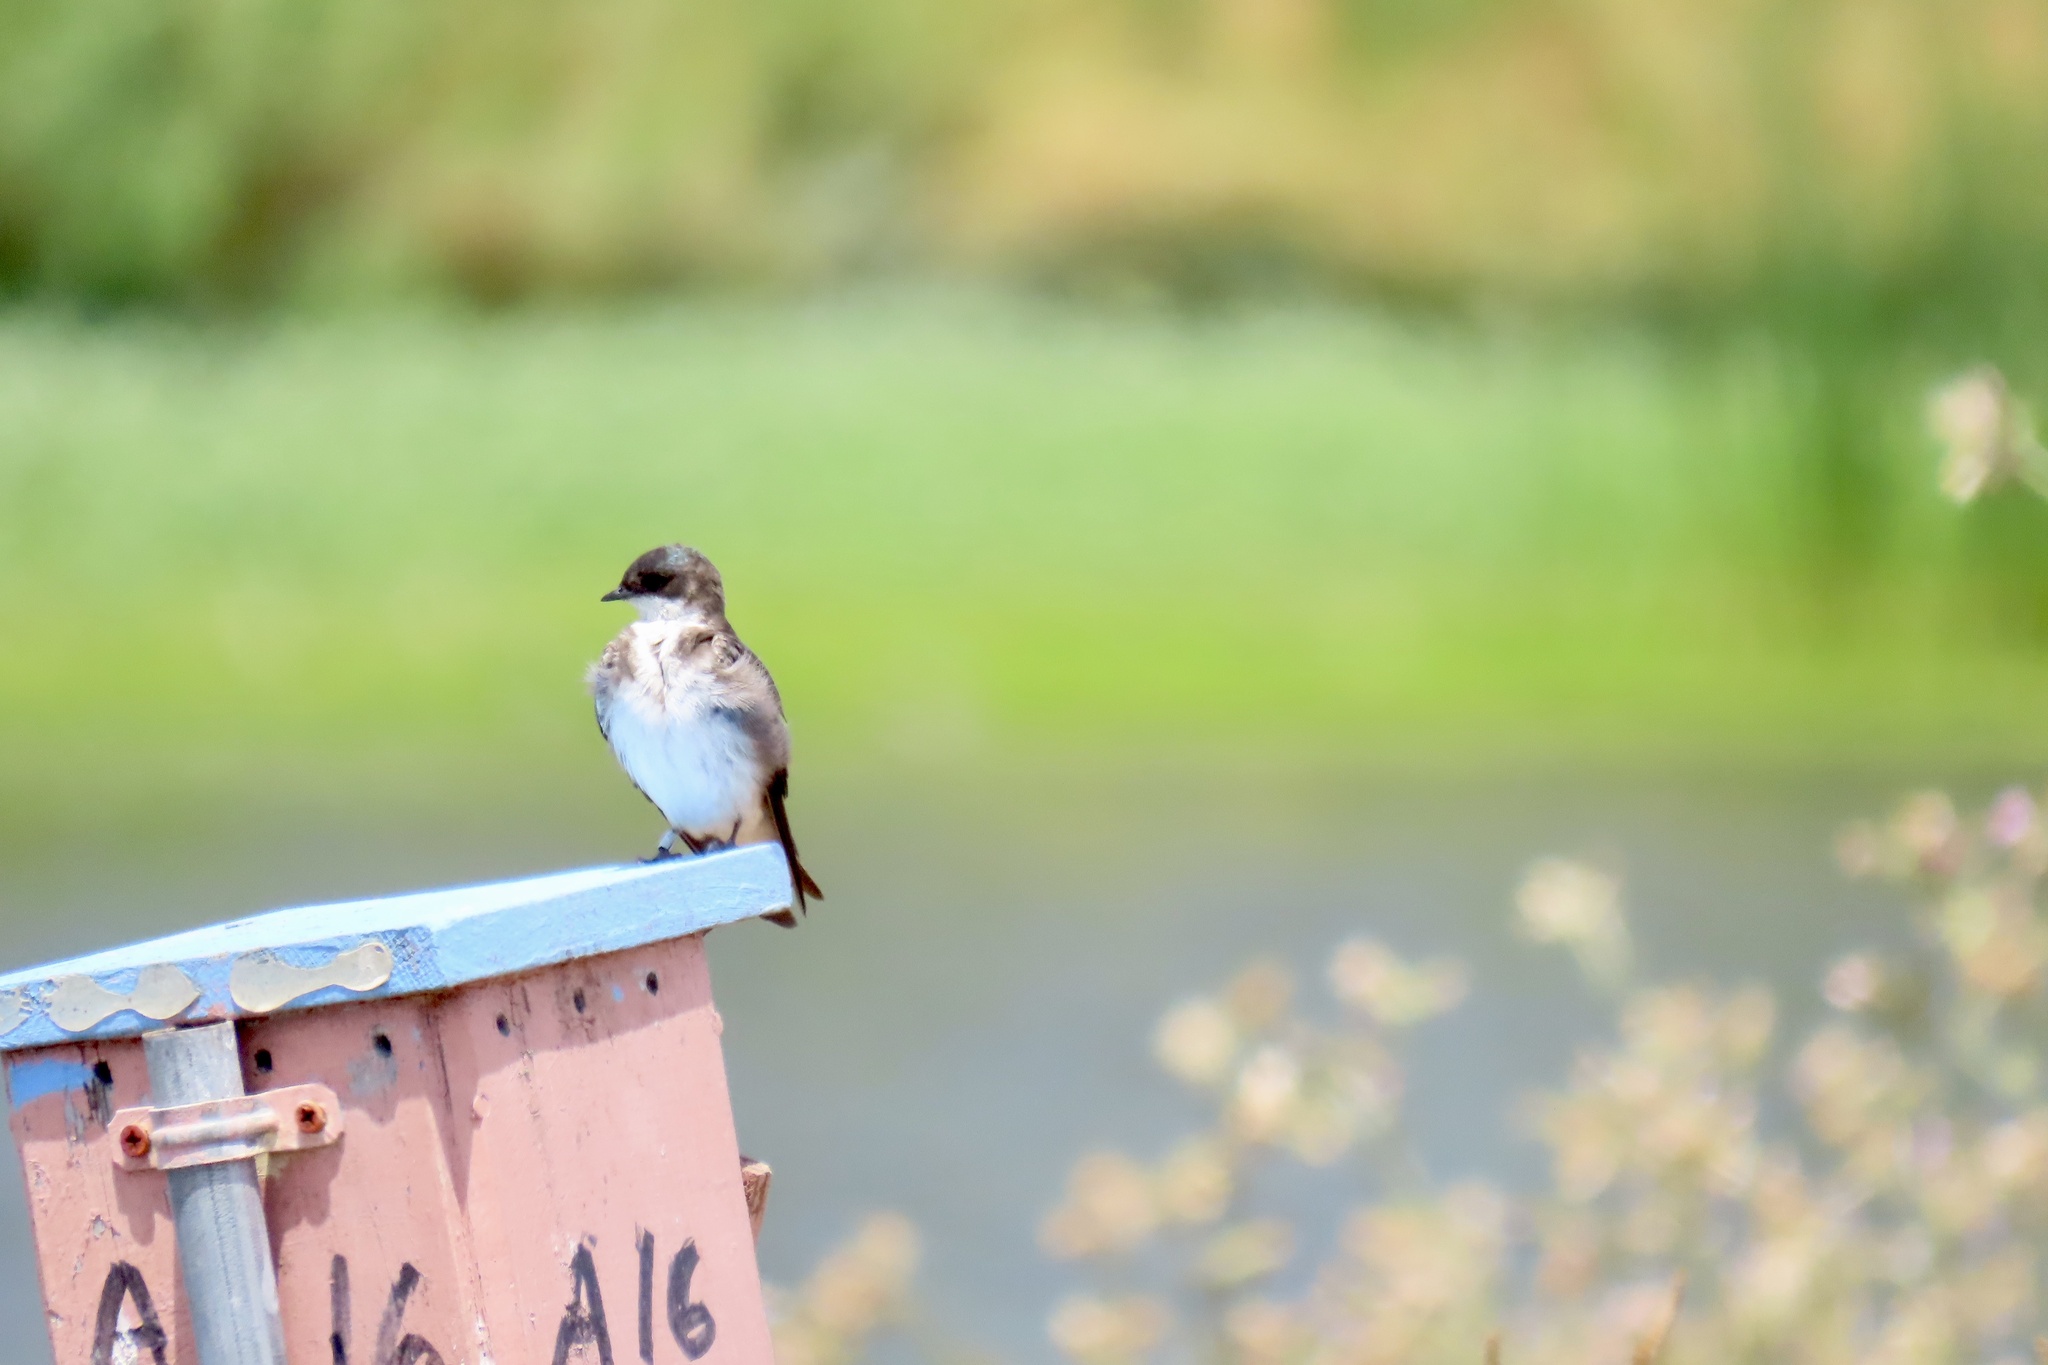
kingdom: Animalia
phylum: Chordata
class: Aves
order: Passeriformes
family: Hirundinidae
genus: Tachycineta
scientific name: Tachycineta bicolor
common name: Tree swallow
